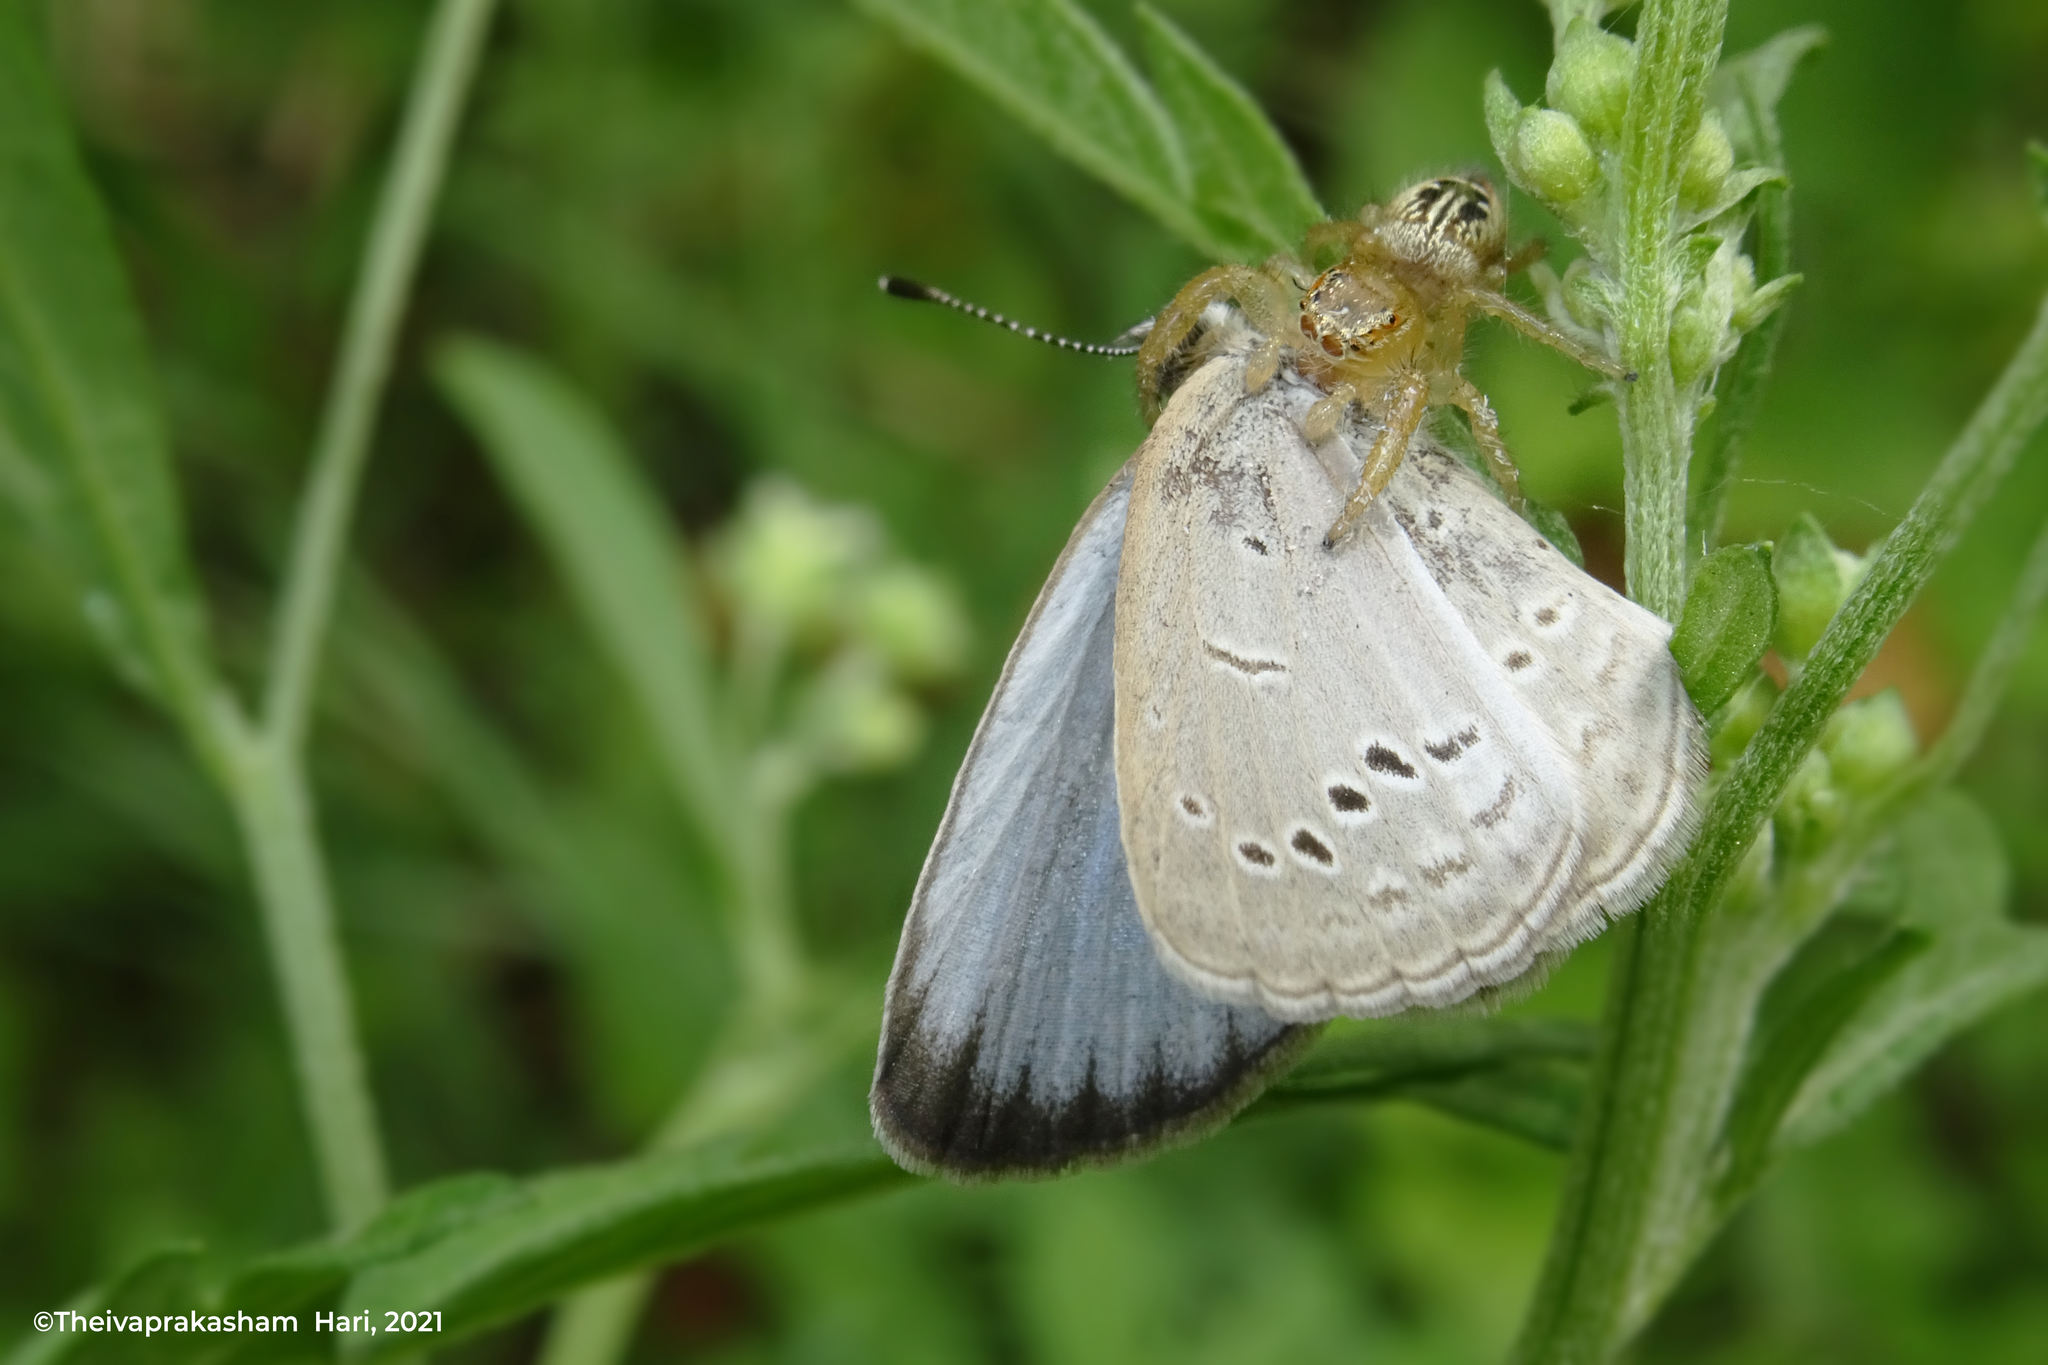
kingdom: Animalia
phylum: Arthropoda
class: Insecta
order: Lepidoptera
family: Lycaenidae
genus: Pseudozizeeria
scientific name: Pseudozizeeria maha
